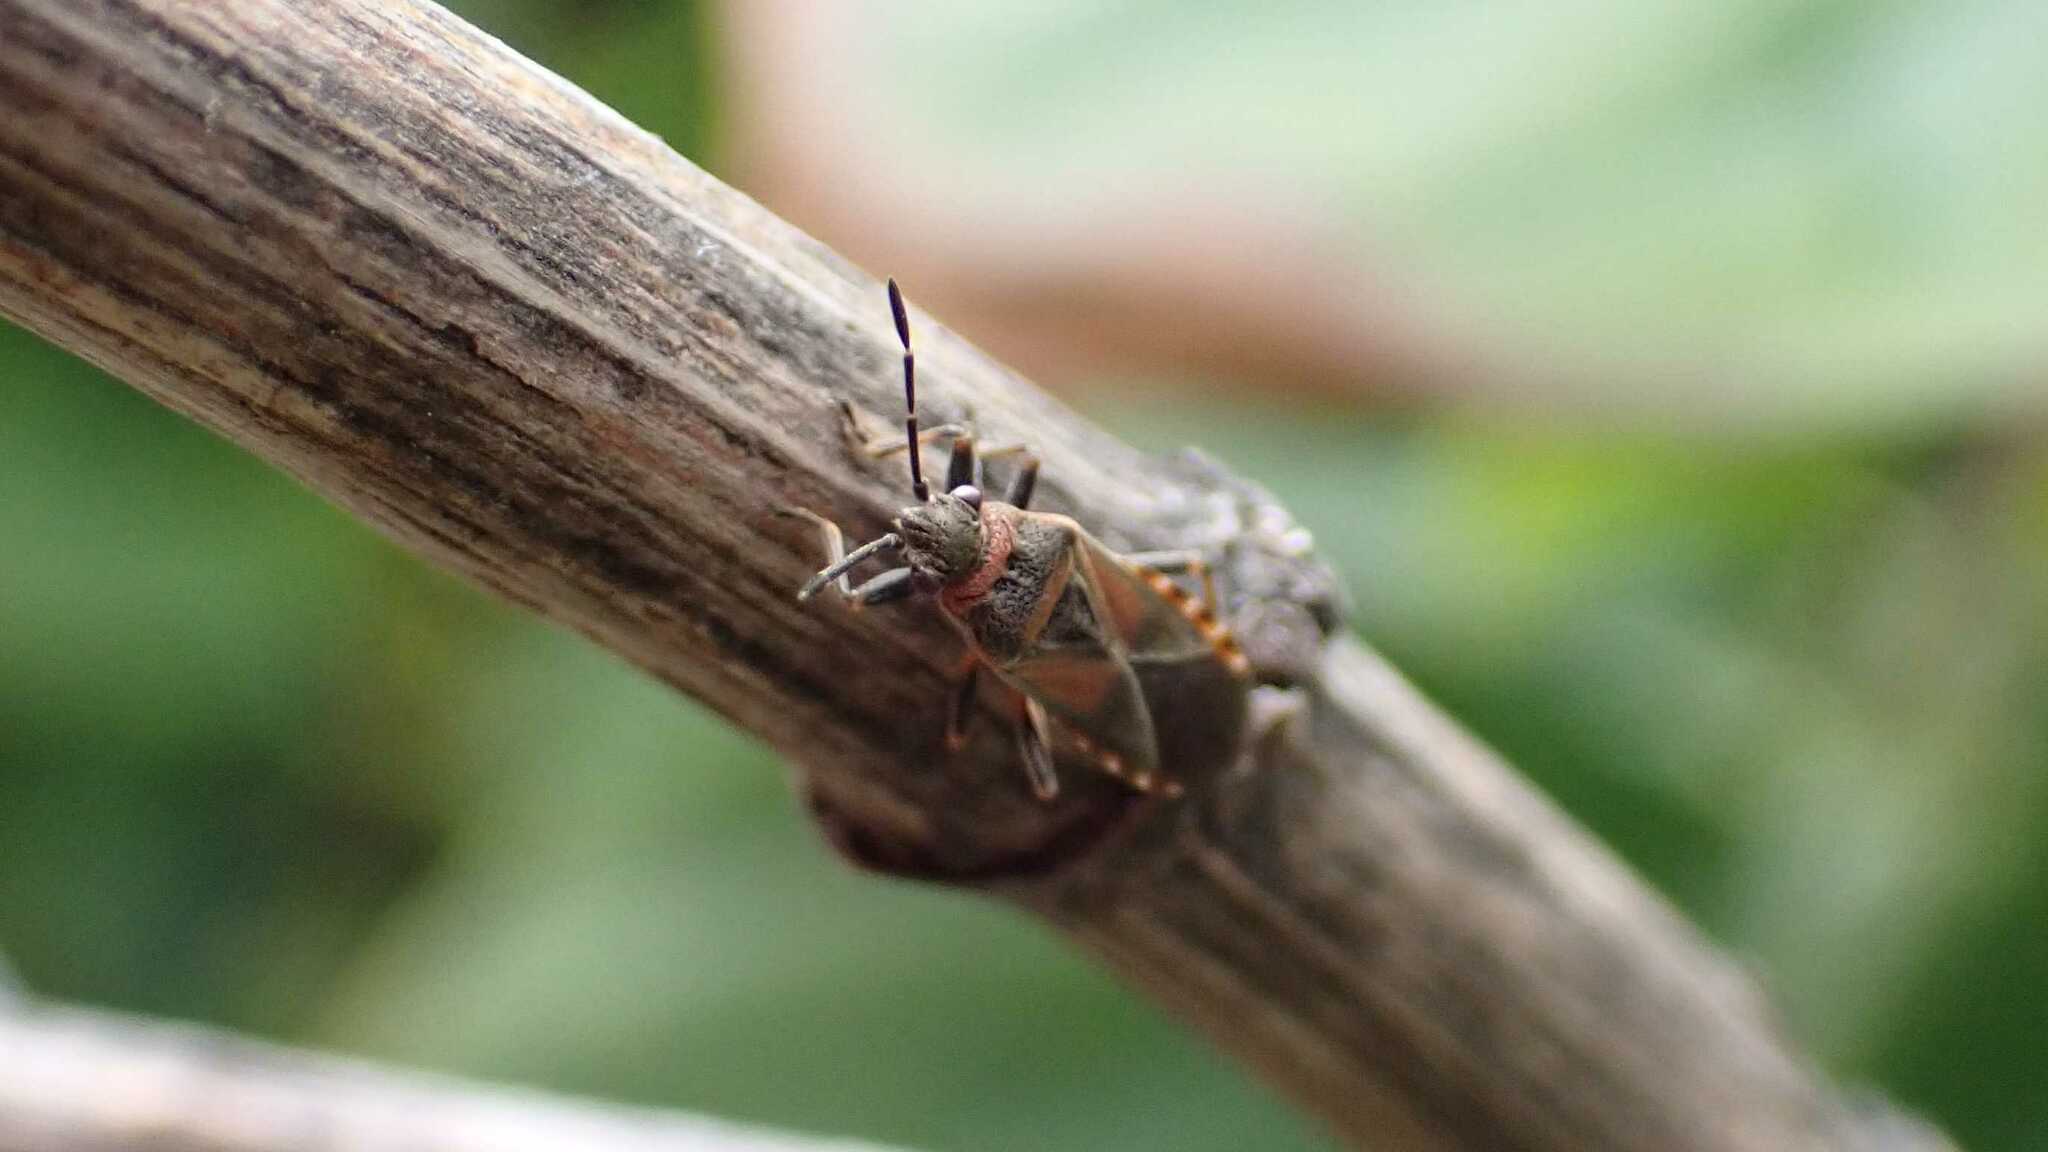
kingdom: Animalia
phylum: Arthropoda
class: Insecta
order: Hemiptera
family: Lygaeidae
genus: Arocatus
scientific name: Arocatus melanocephalus
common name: Lygaeid bug
